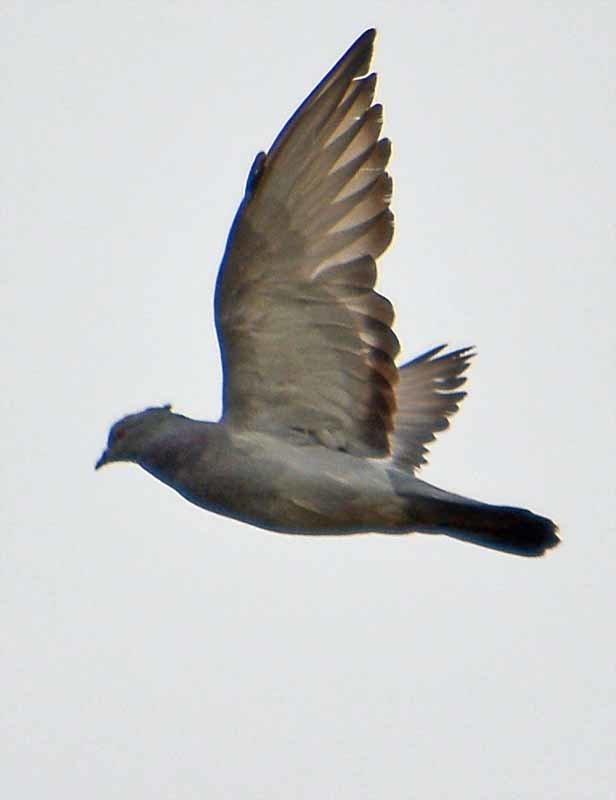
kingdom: Animalia
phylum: Chordata
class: Aves
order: Columbiformes
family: Columbidae
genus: Columba
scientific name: Columba livia
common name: Rock pigeon
